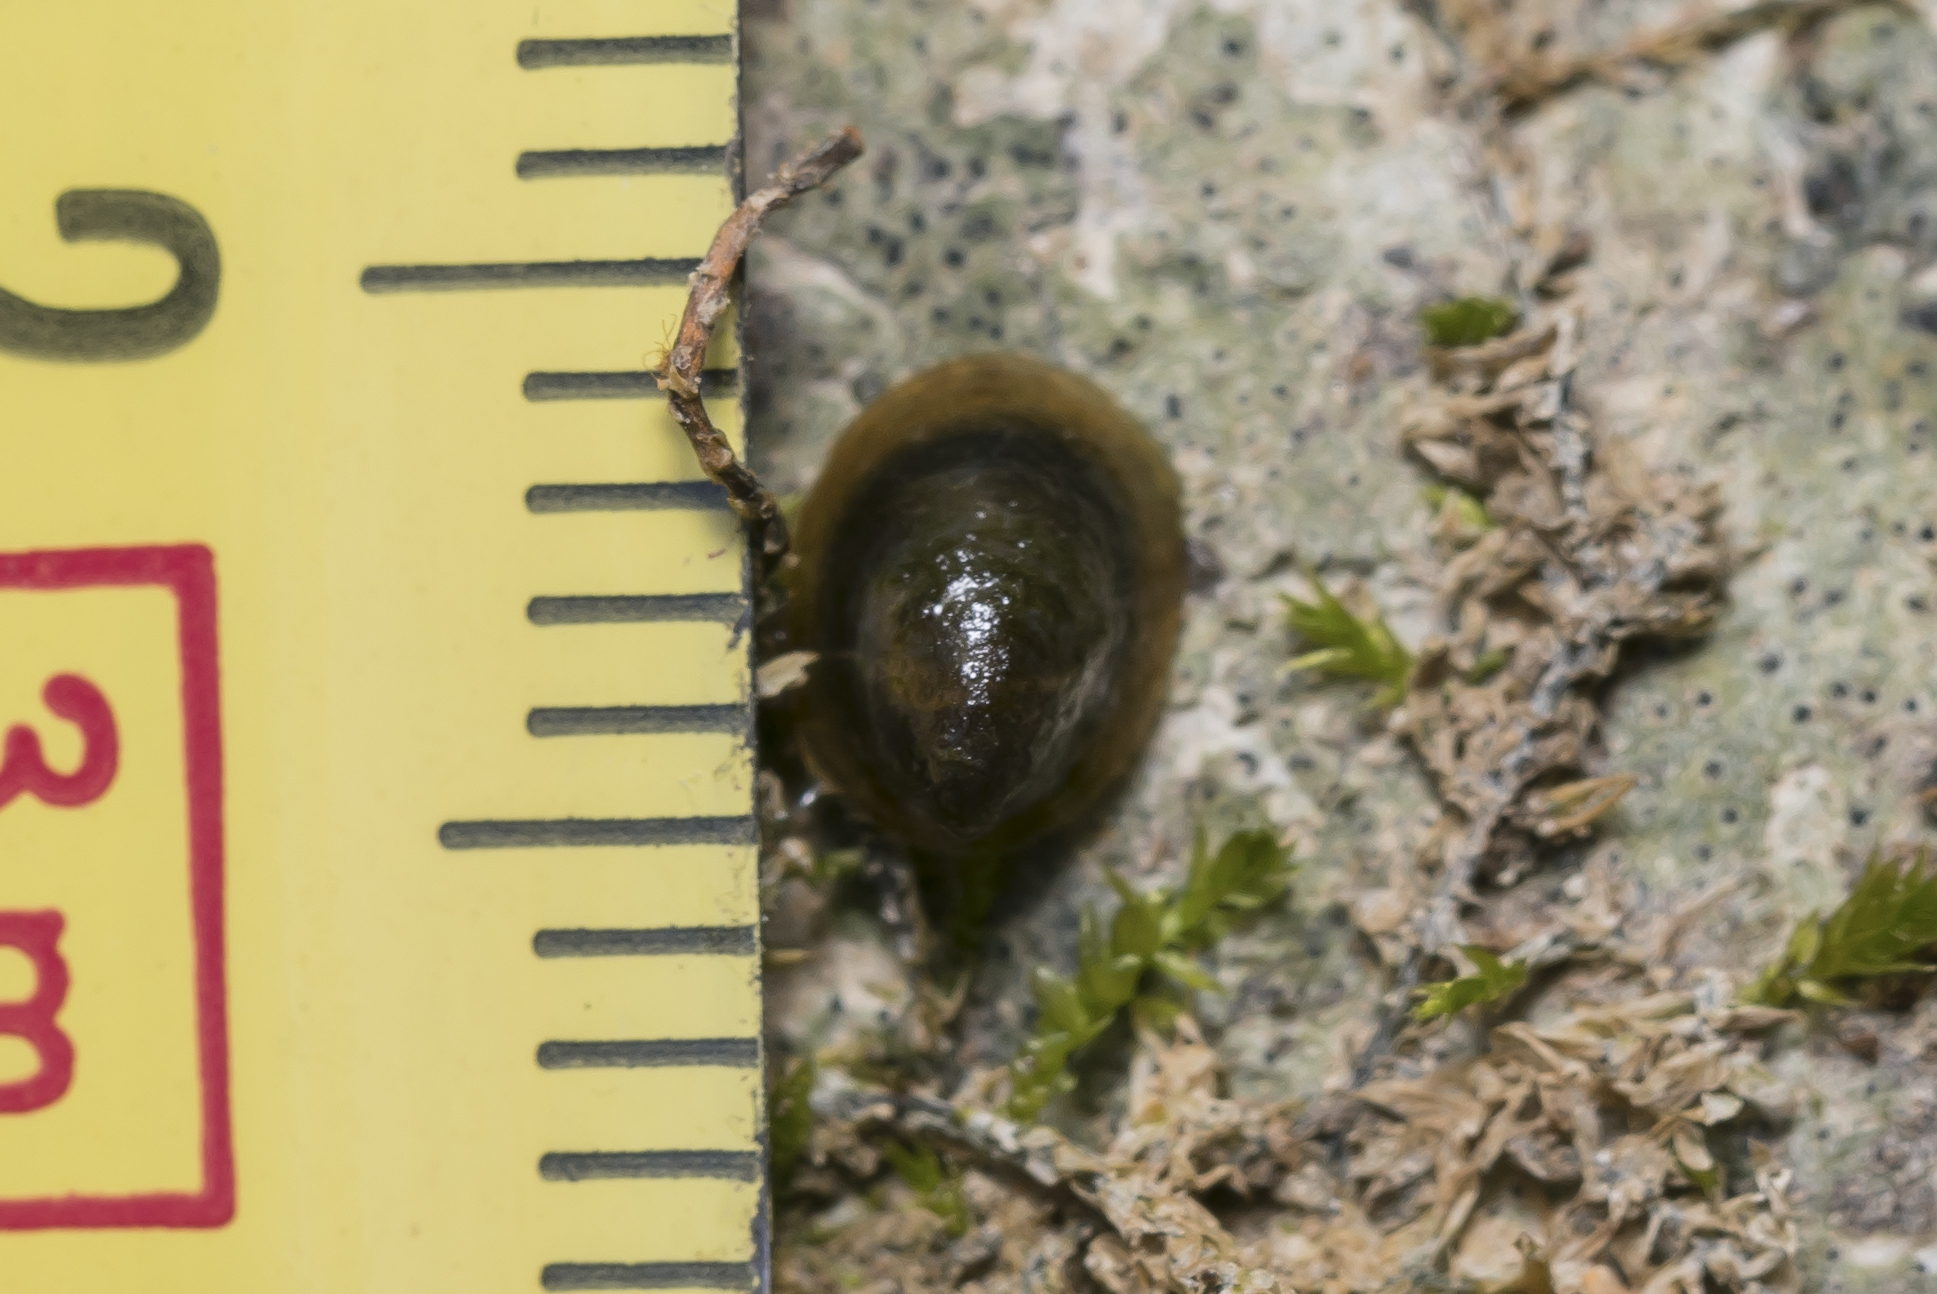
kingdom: Animalia
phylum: Mollusca
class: Gastropoda
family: Planorbidae
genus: Ancylus
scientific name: Ancylus fluviatilis
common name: River limpet
